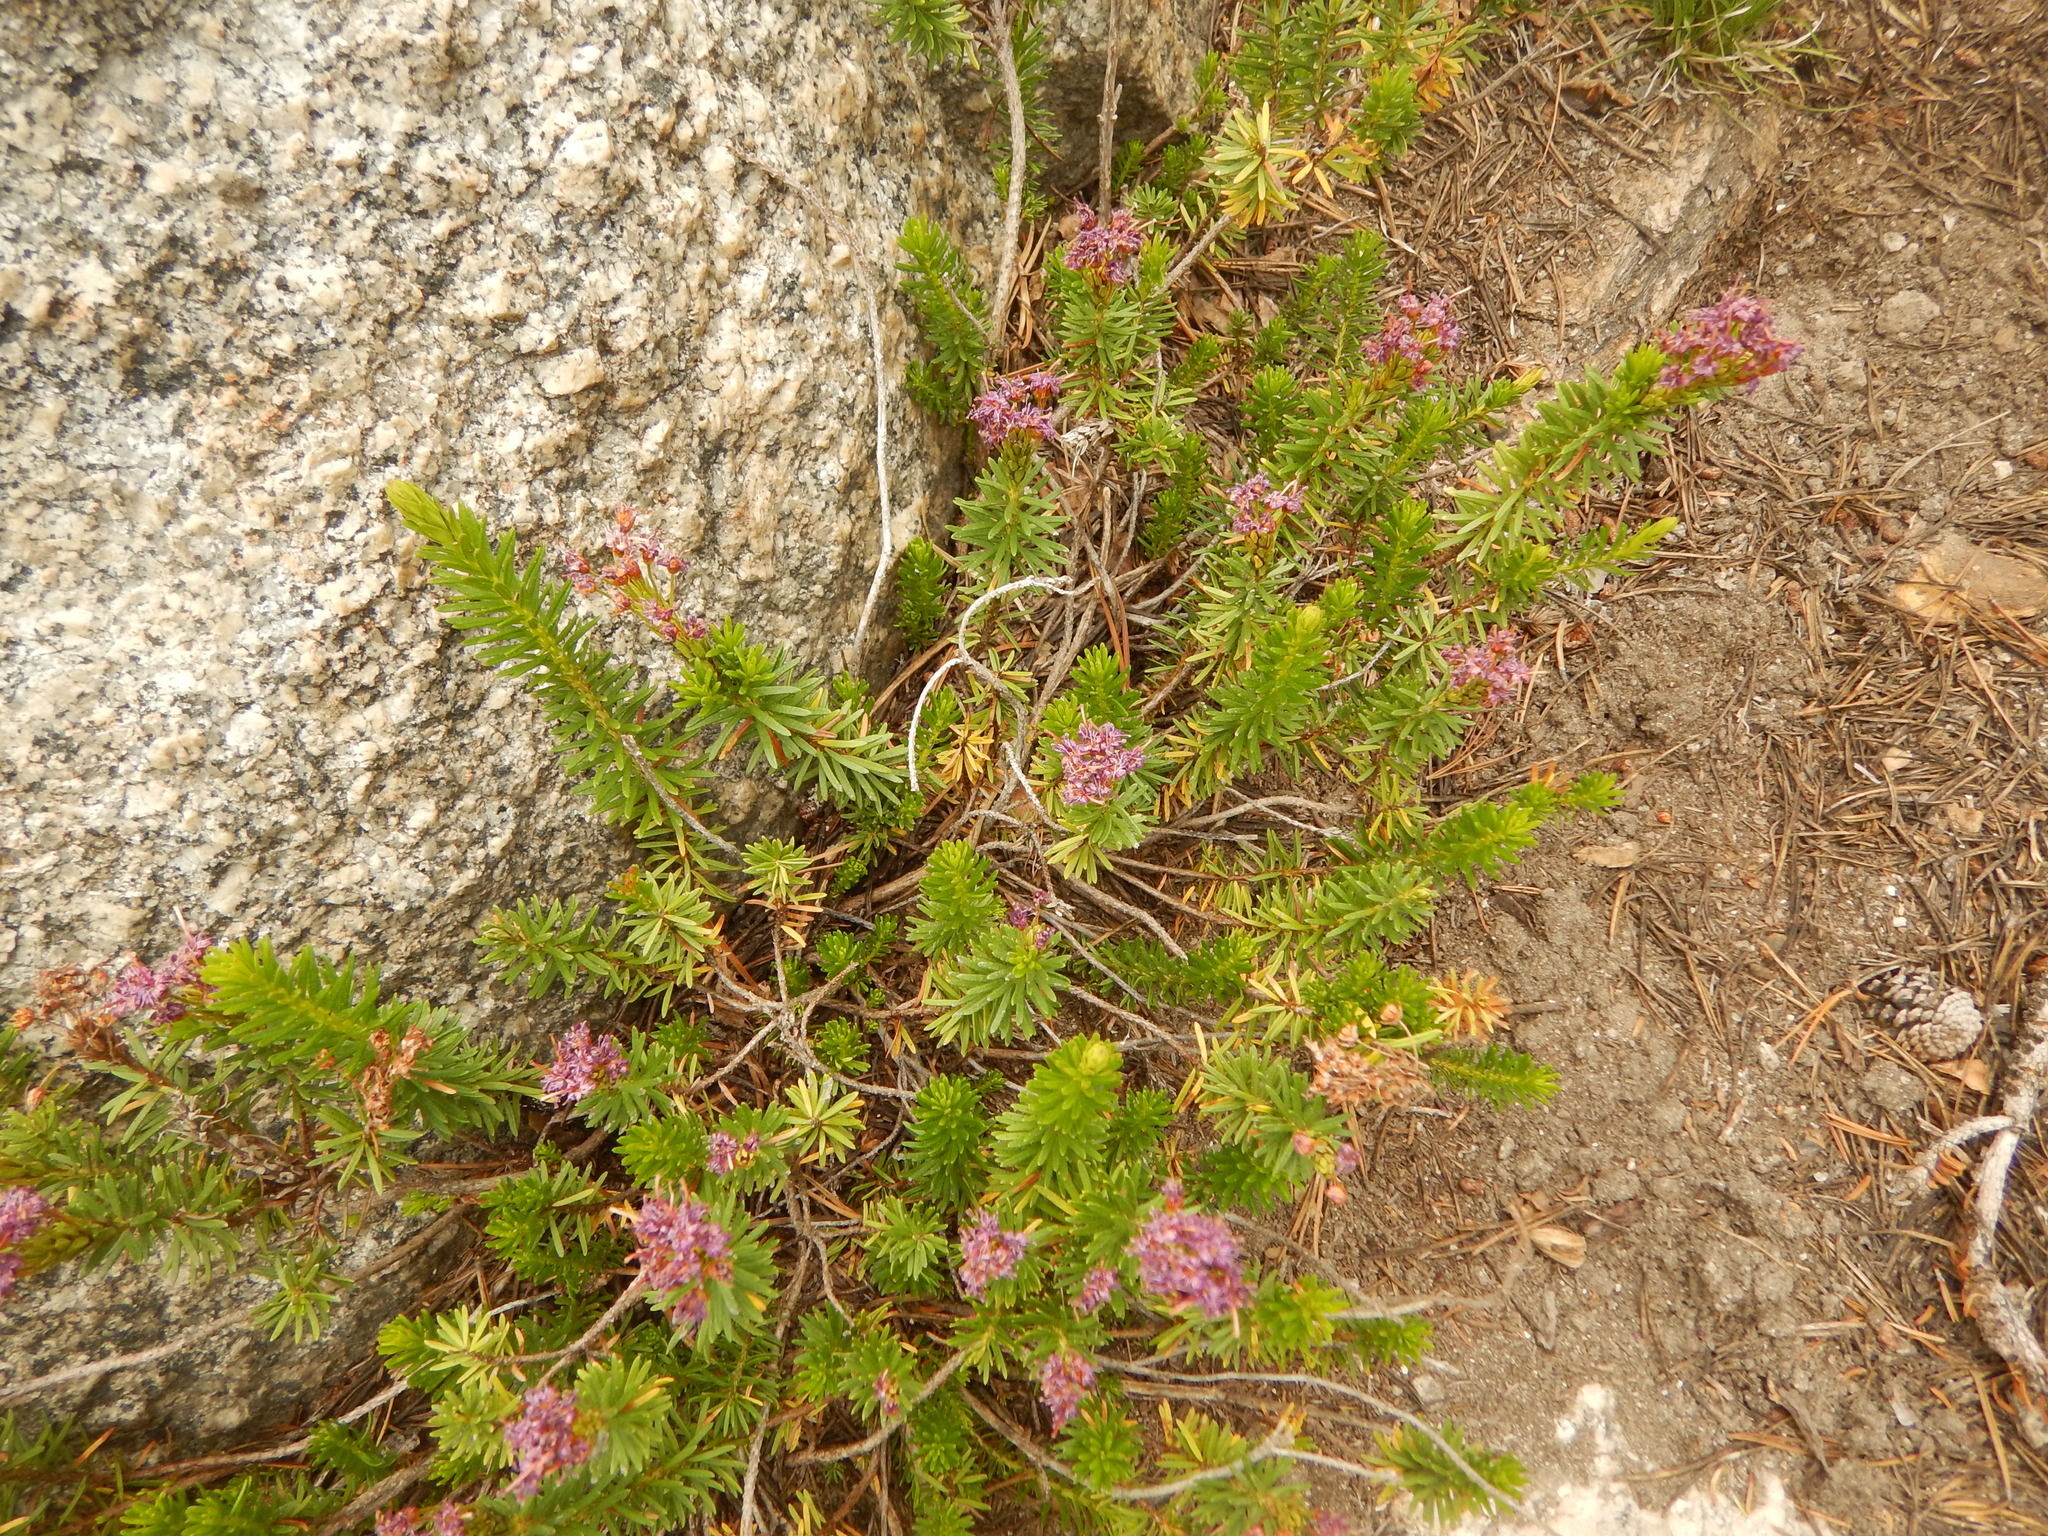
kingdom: Plantae
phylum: Tracheophyta
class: Magnoliopsida
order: Ericales
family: Ericaceae
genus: Phyllodoce
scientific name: Phyllodoce breweri
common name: Brewer's mountain-heather
